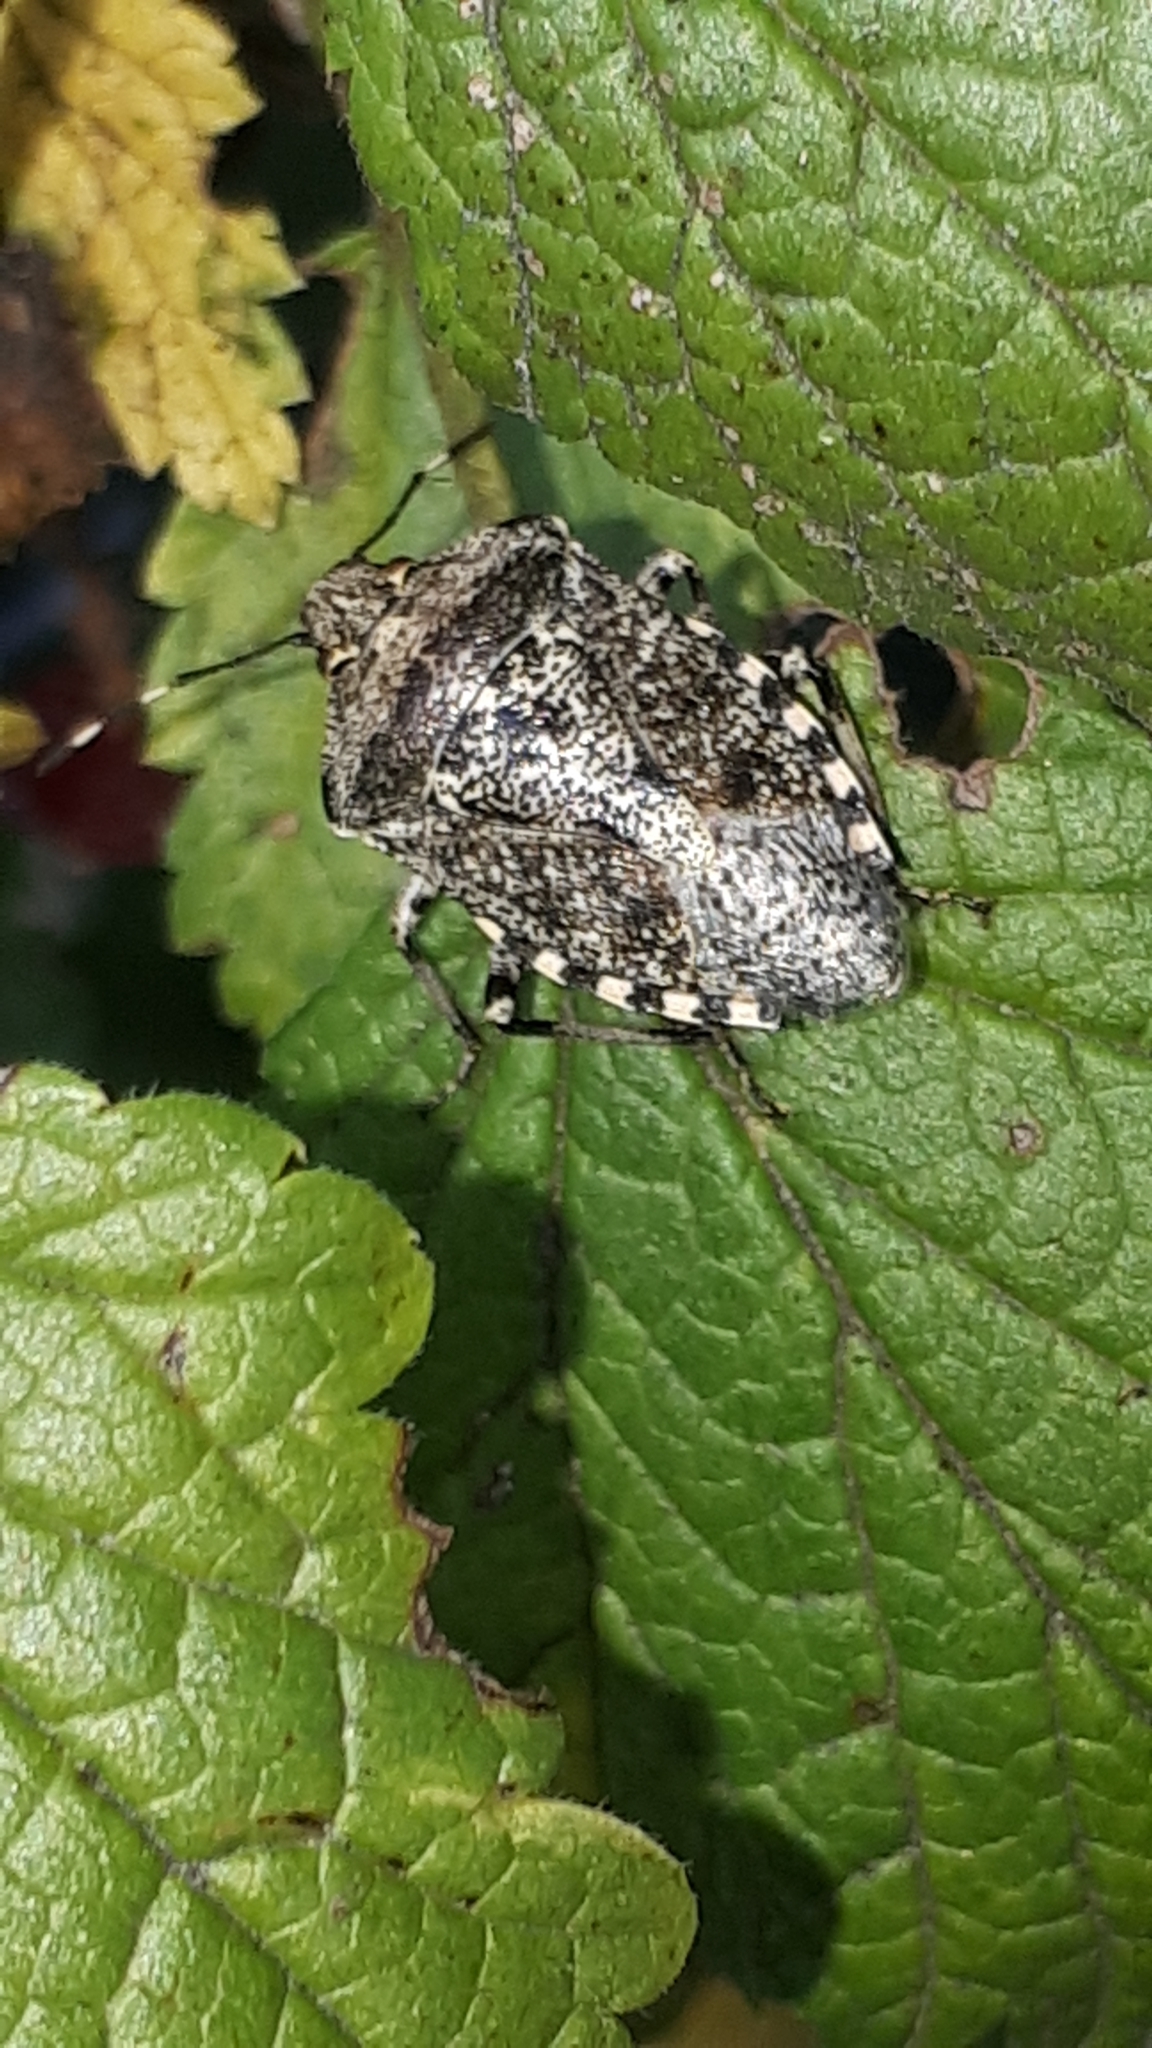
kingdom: Animalia
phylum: Arthropoda
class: Insecta
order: Hemiptera
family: Pentatomidae
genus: Rhaphigaster
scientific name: Rhaphigaster nebulosa
